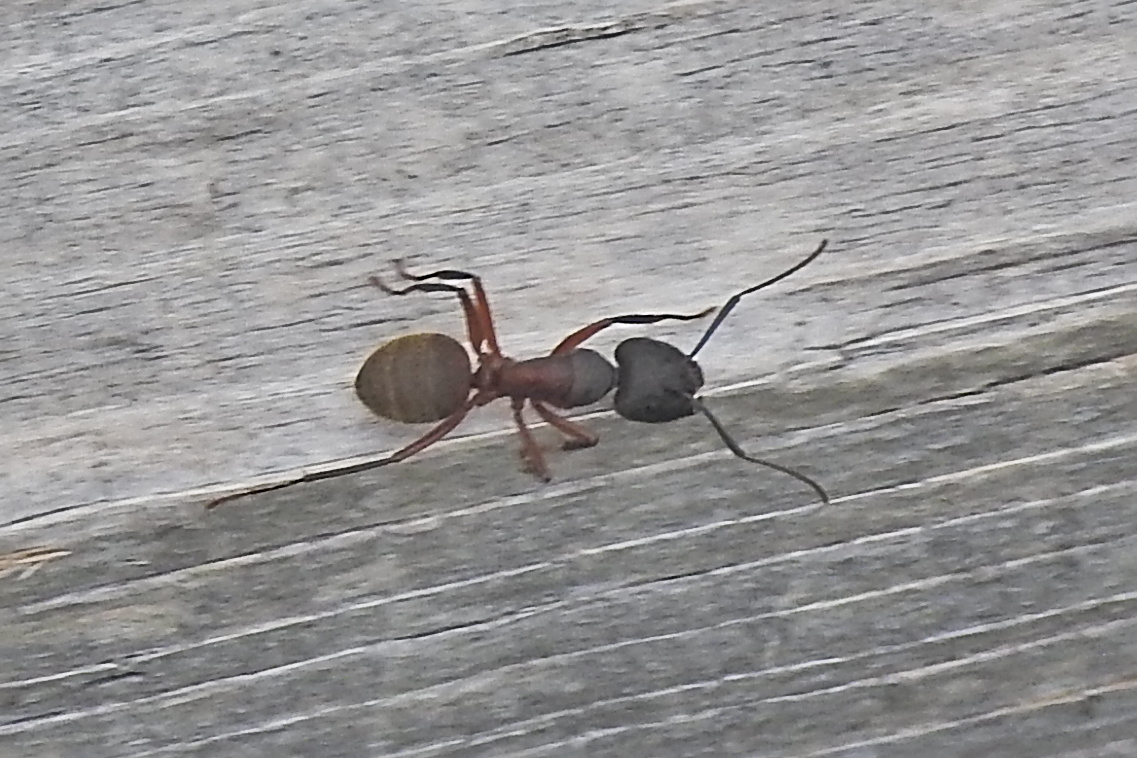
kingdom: Animalia
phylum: Arthropoda
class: Insecta
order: Hymenoptera
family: Formicidae
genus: Camponotus
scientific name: Camponotus chromaiodes
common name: Red carpenter ant
